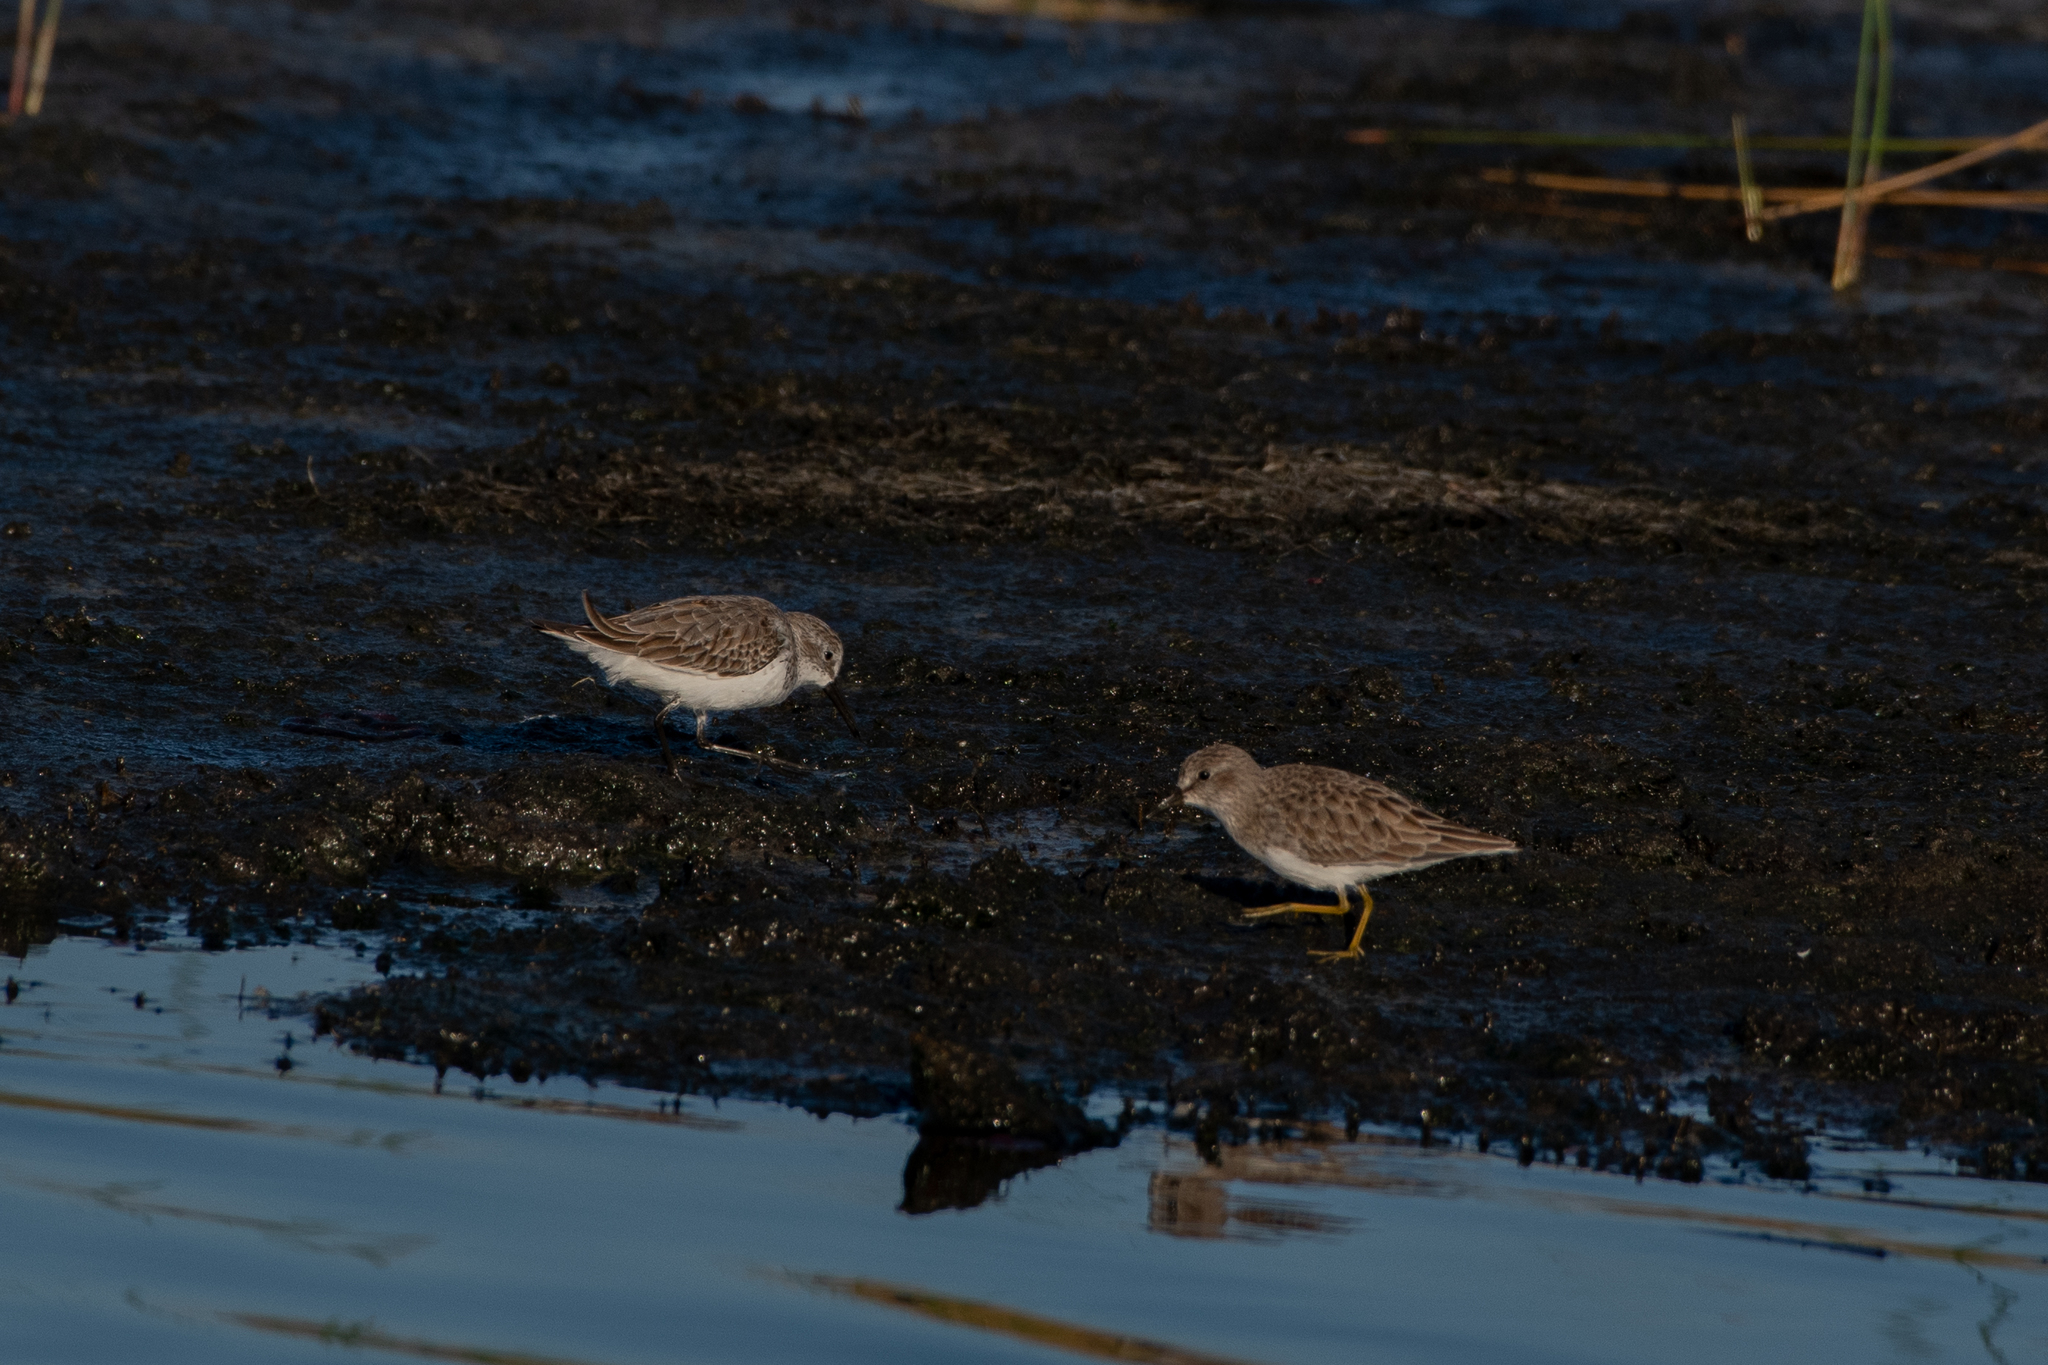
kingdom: Animalia
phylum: Chordata
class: Aves
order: Charadriiformes
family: Scolopacidae
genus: Calidris
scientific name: Calidris mauri
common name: Western sandpiper
